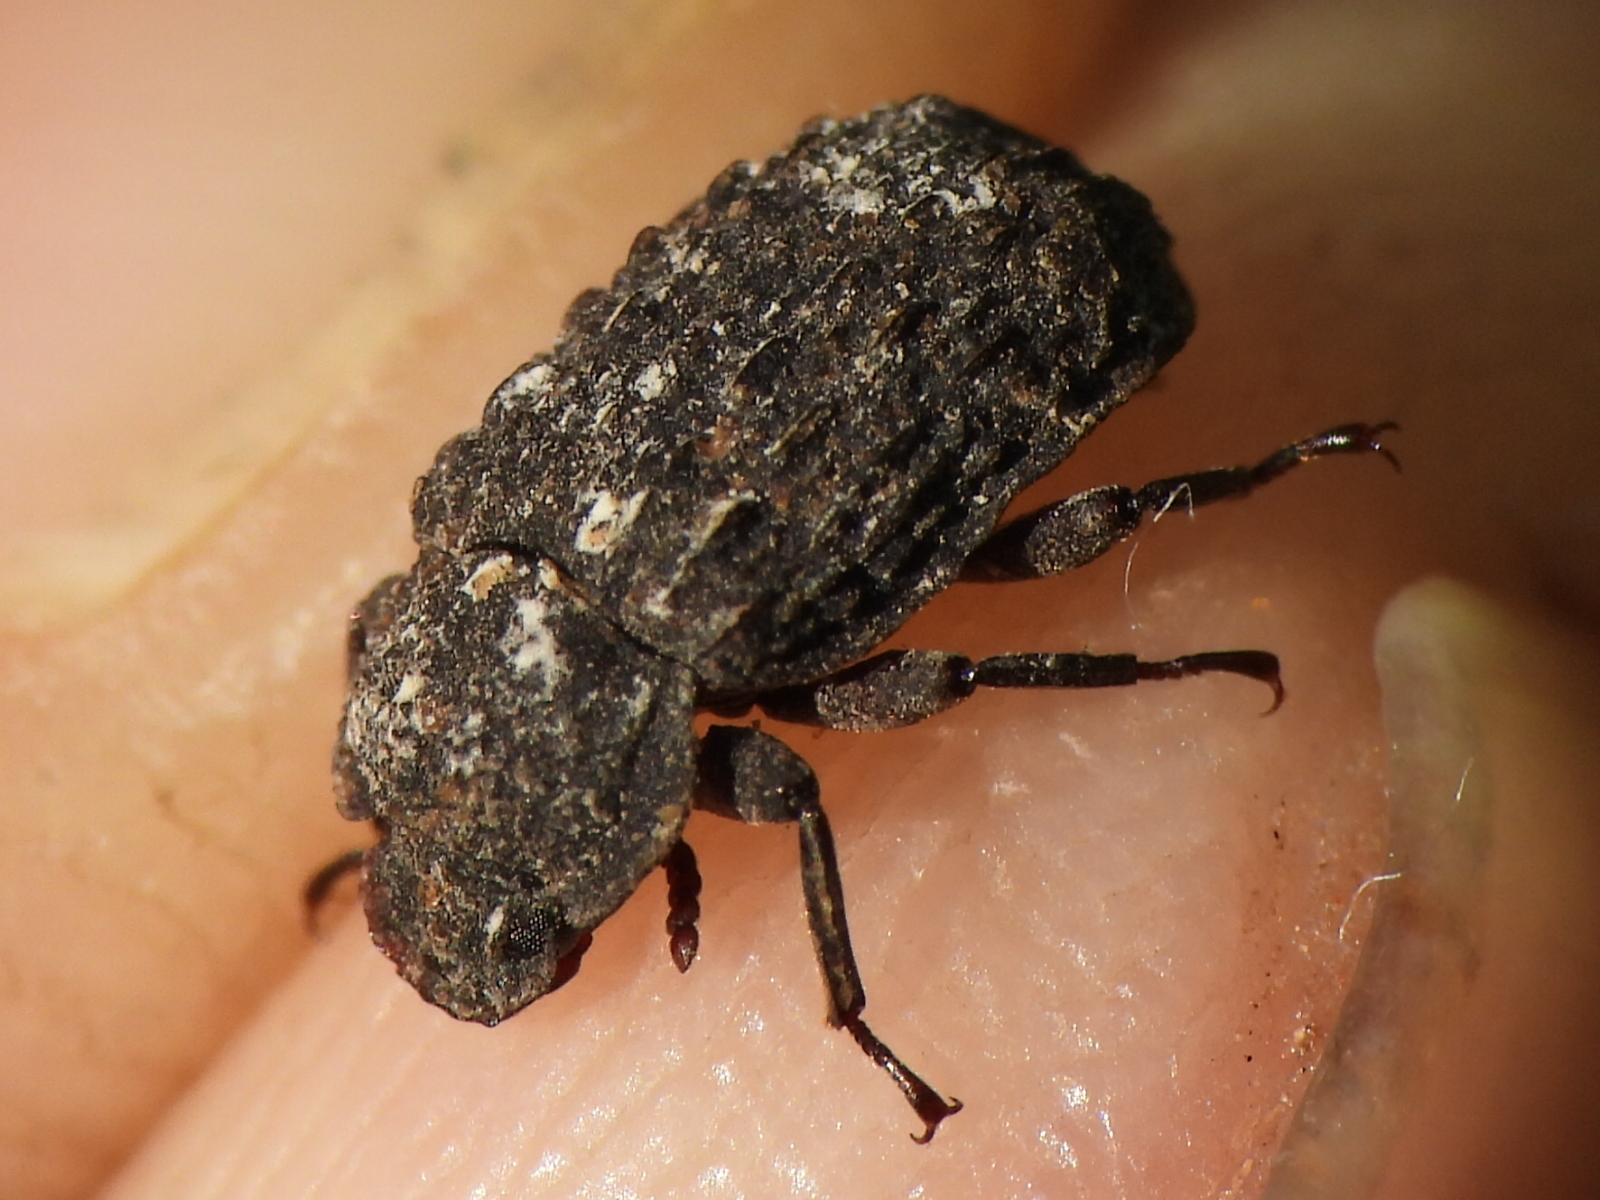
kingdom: Animalia
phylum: Arthropoda
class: Insecta
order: Coleoptera
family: Tenebrionidae
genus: Gnatocerus
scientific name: Gnatocerus cornutus
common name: Broad-horned flour beetle
